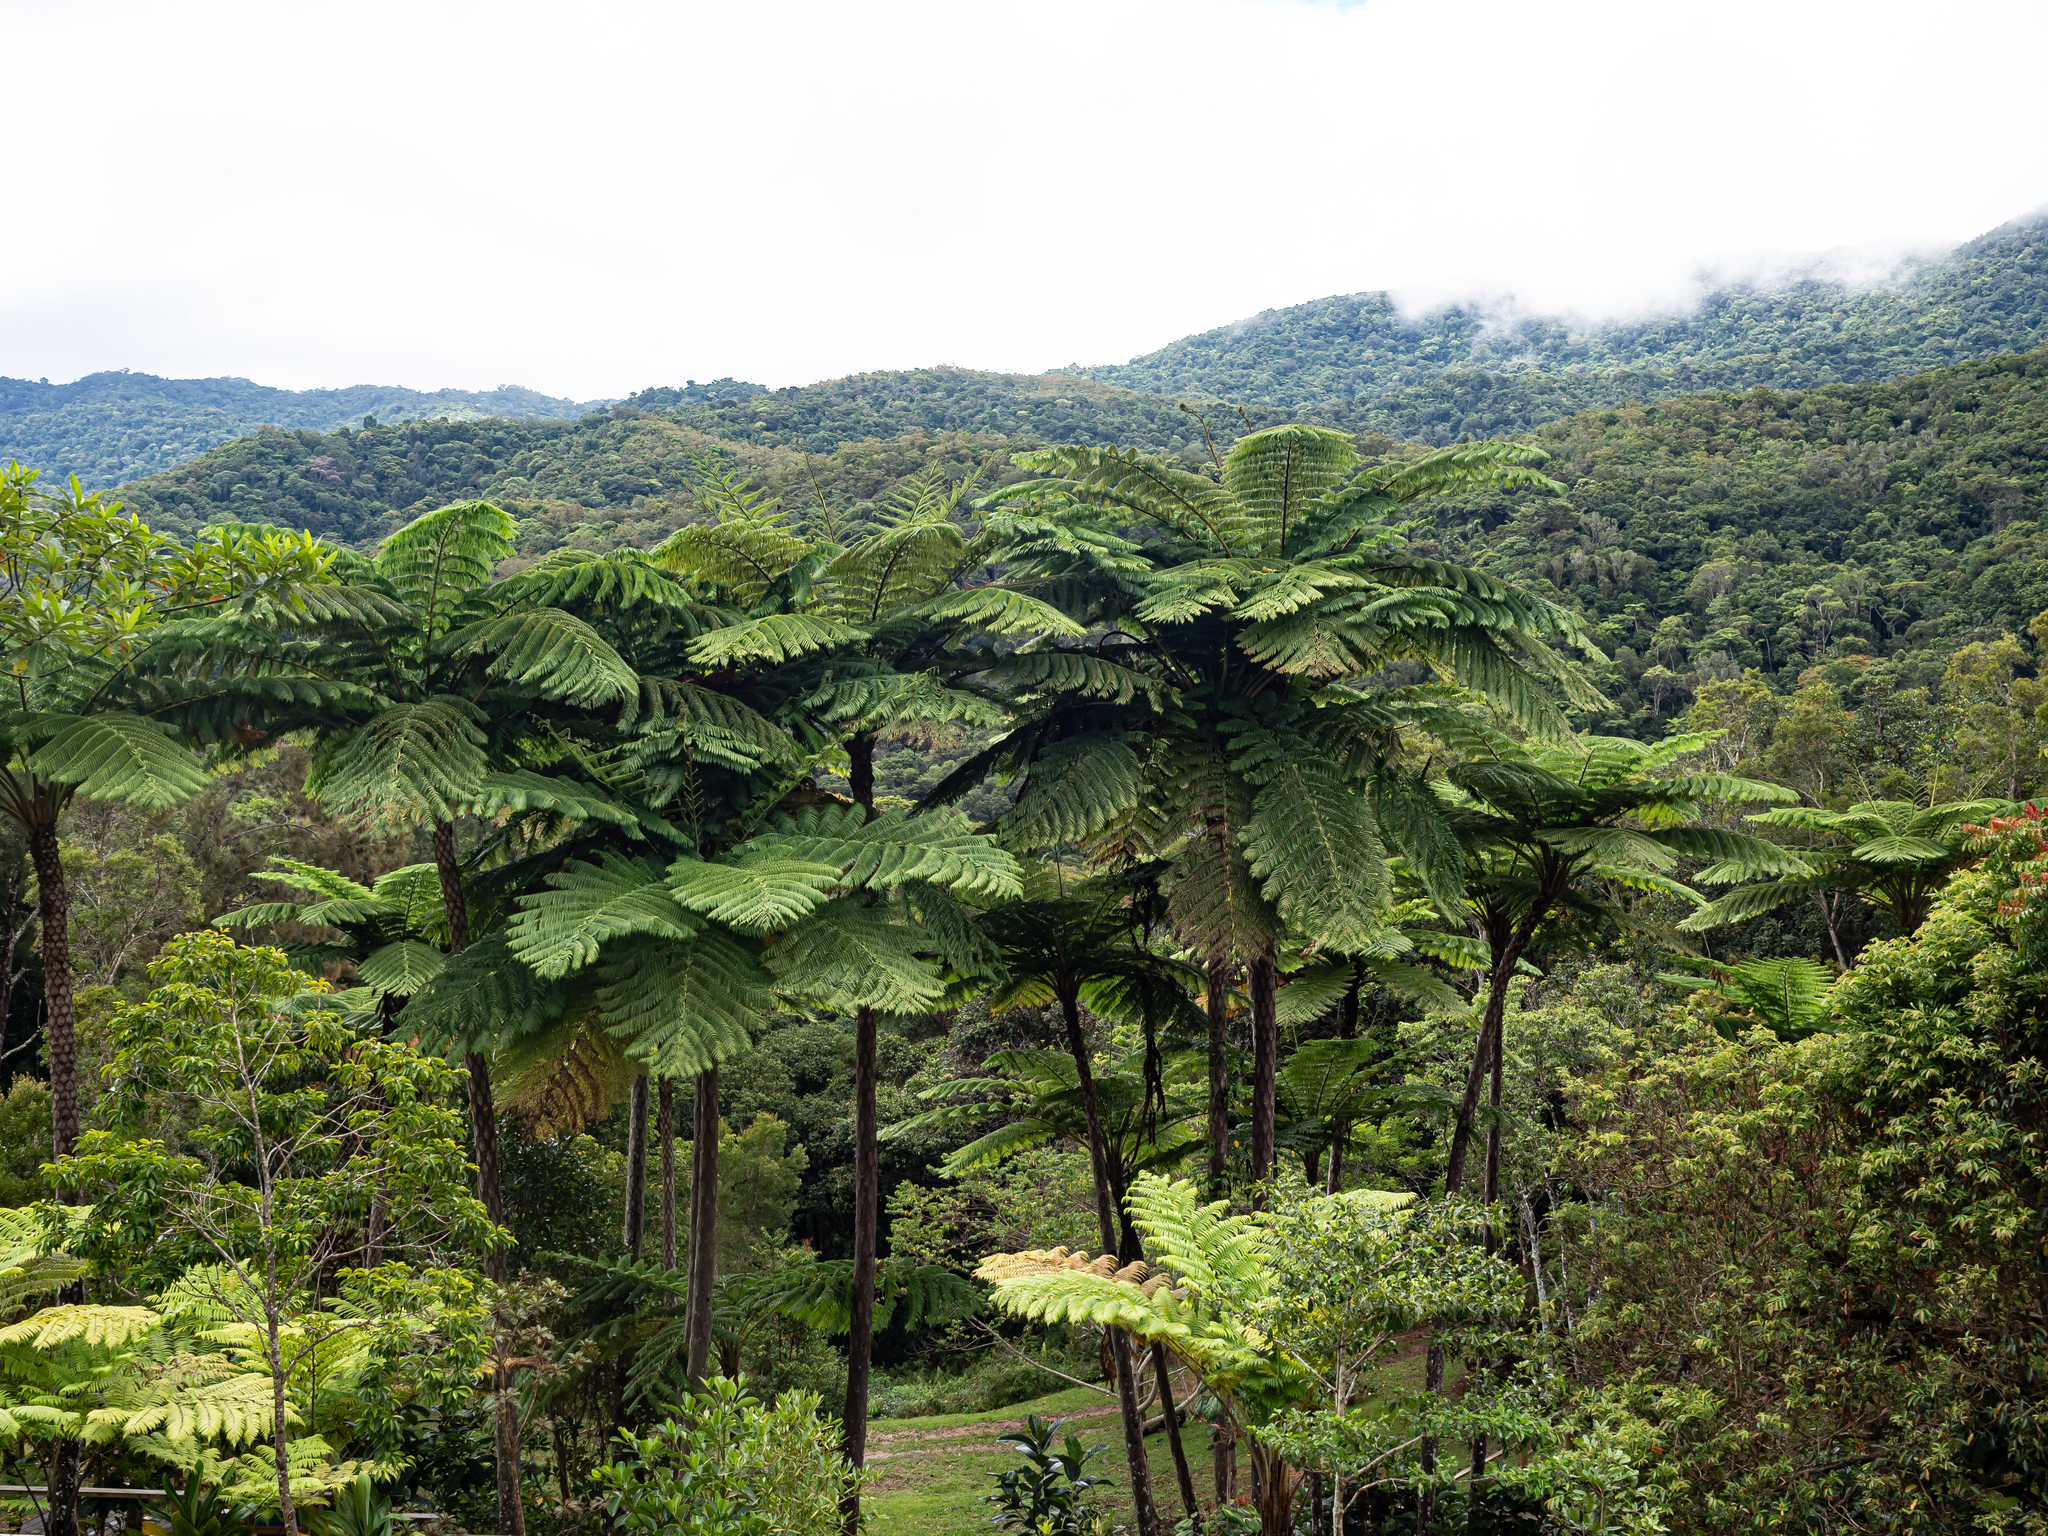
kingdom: Plantae
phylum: Tracheophyta
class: Polypodiopsida
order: Cyatheales
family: Cyatheaceae
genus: Sphaeropteris
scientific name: Sphaeropteris intermedia
